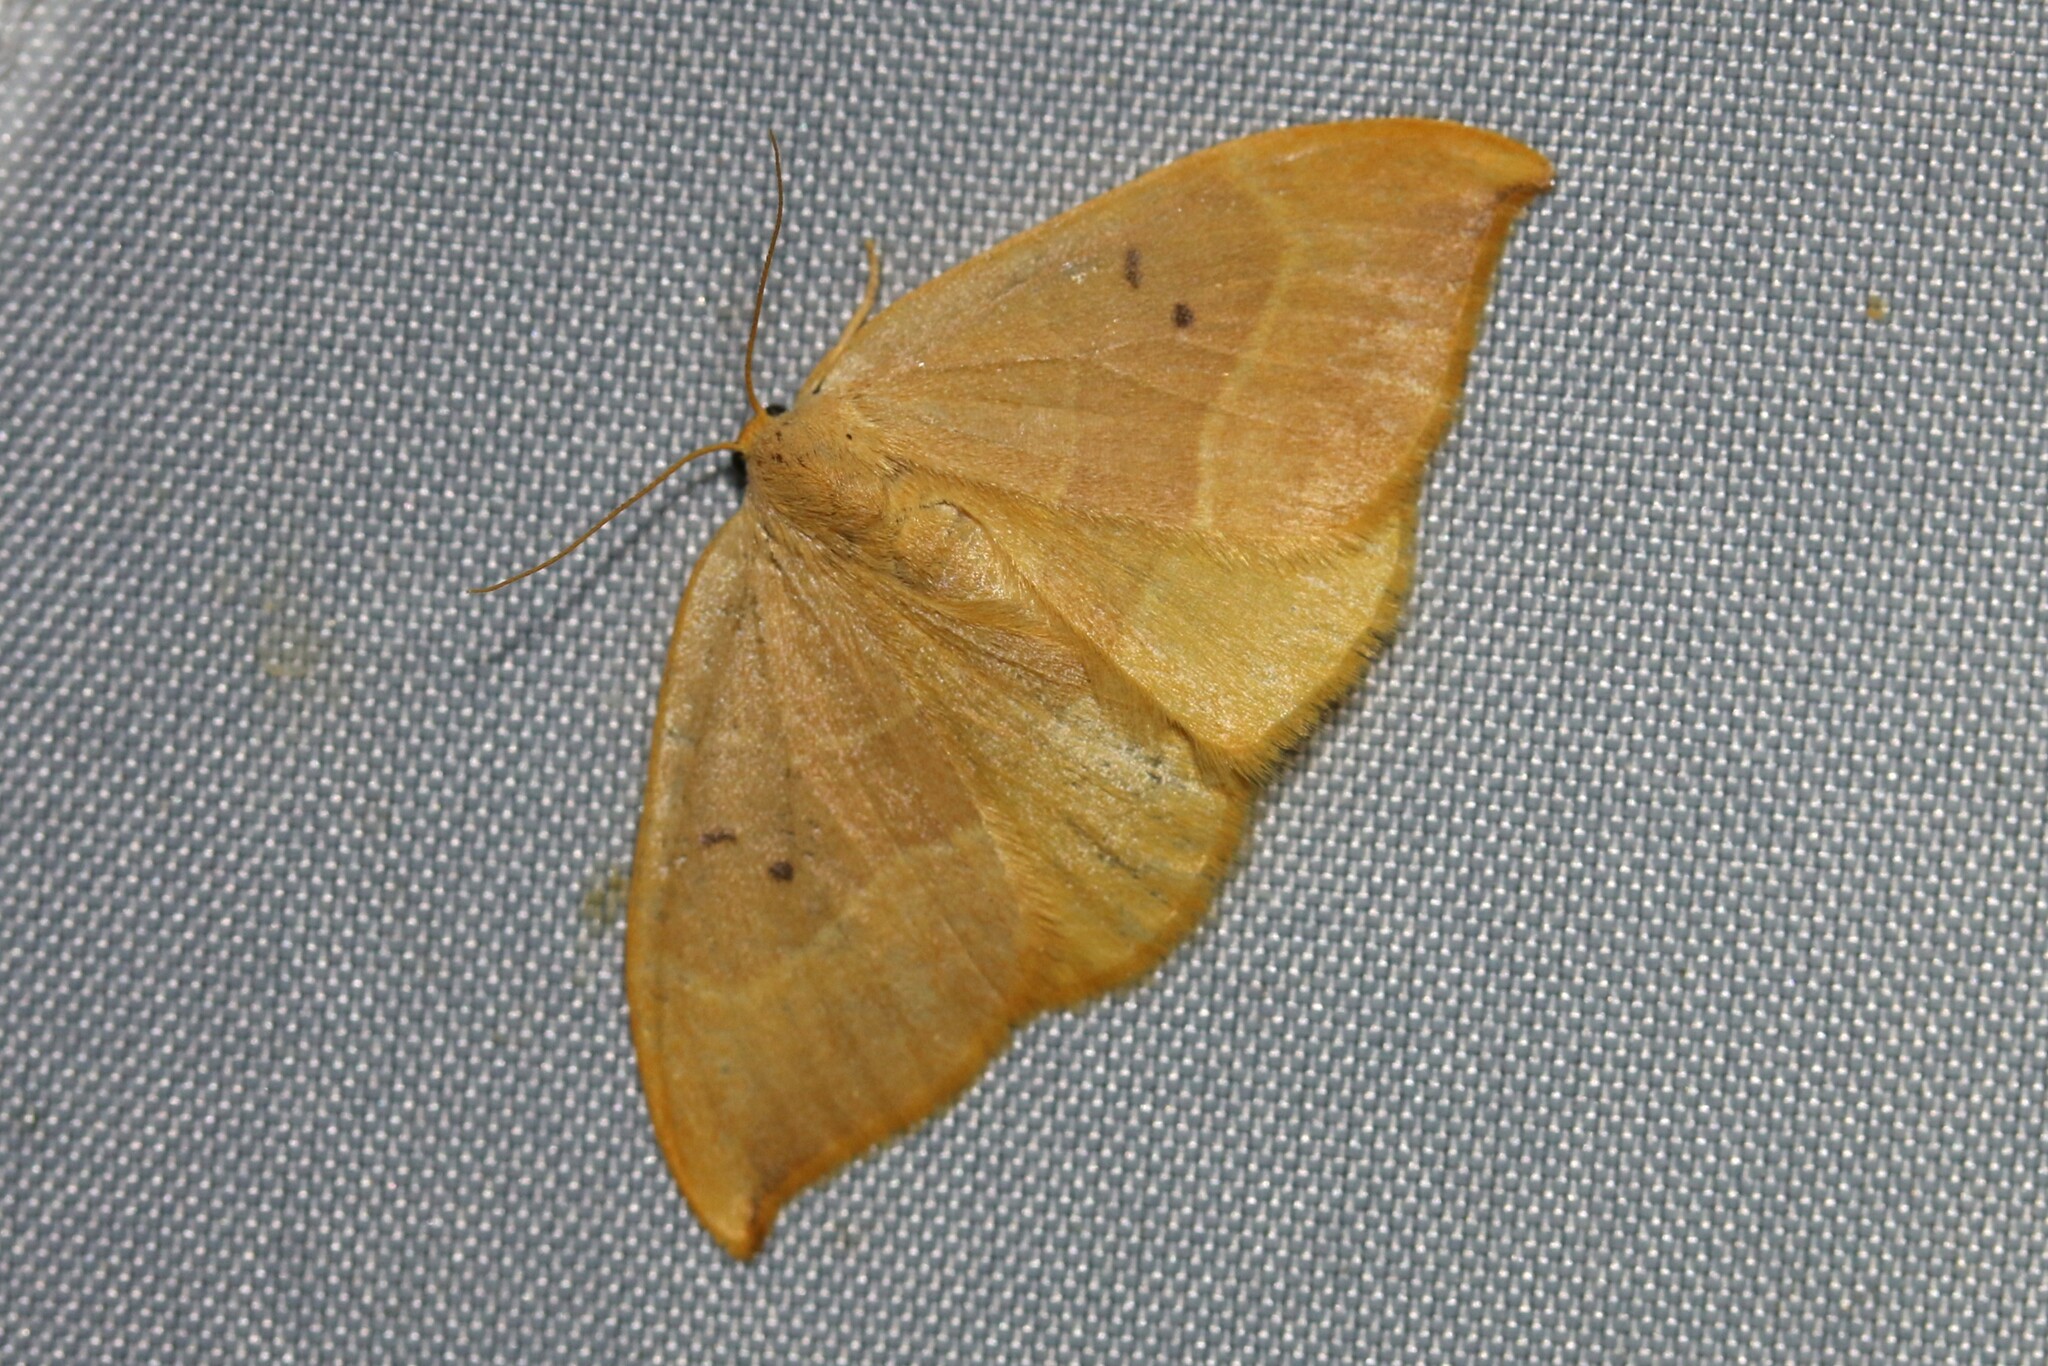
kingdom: Animalia
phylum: Arthropoda
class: Insecta
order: Lepidoptera
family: Drepanidae
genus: Watsonalla
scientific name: Watsonalla binaria
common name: Oak hook-tip
